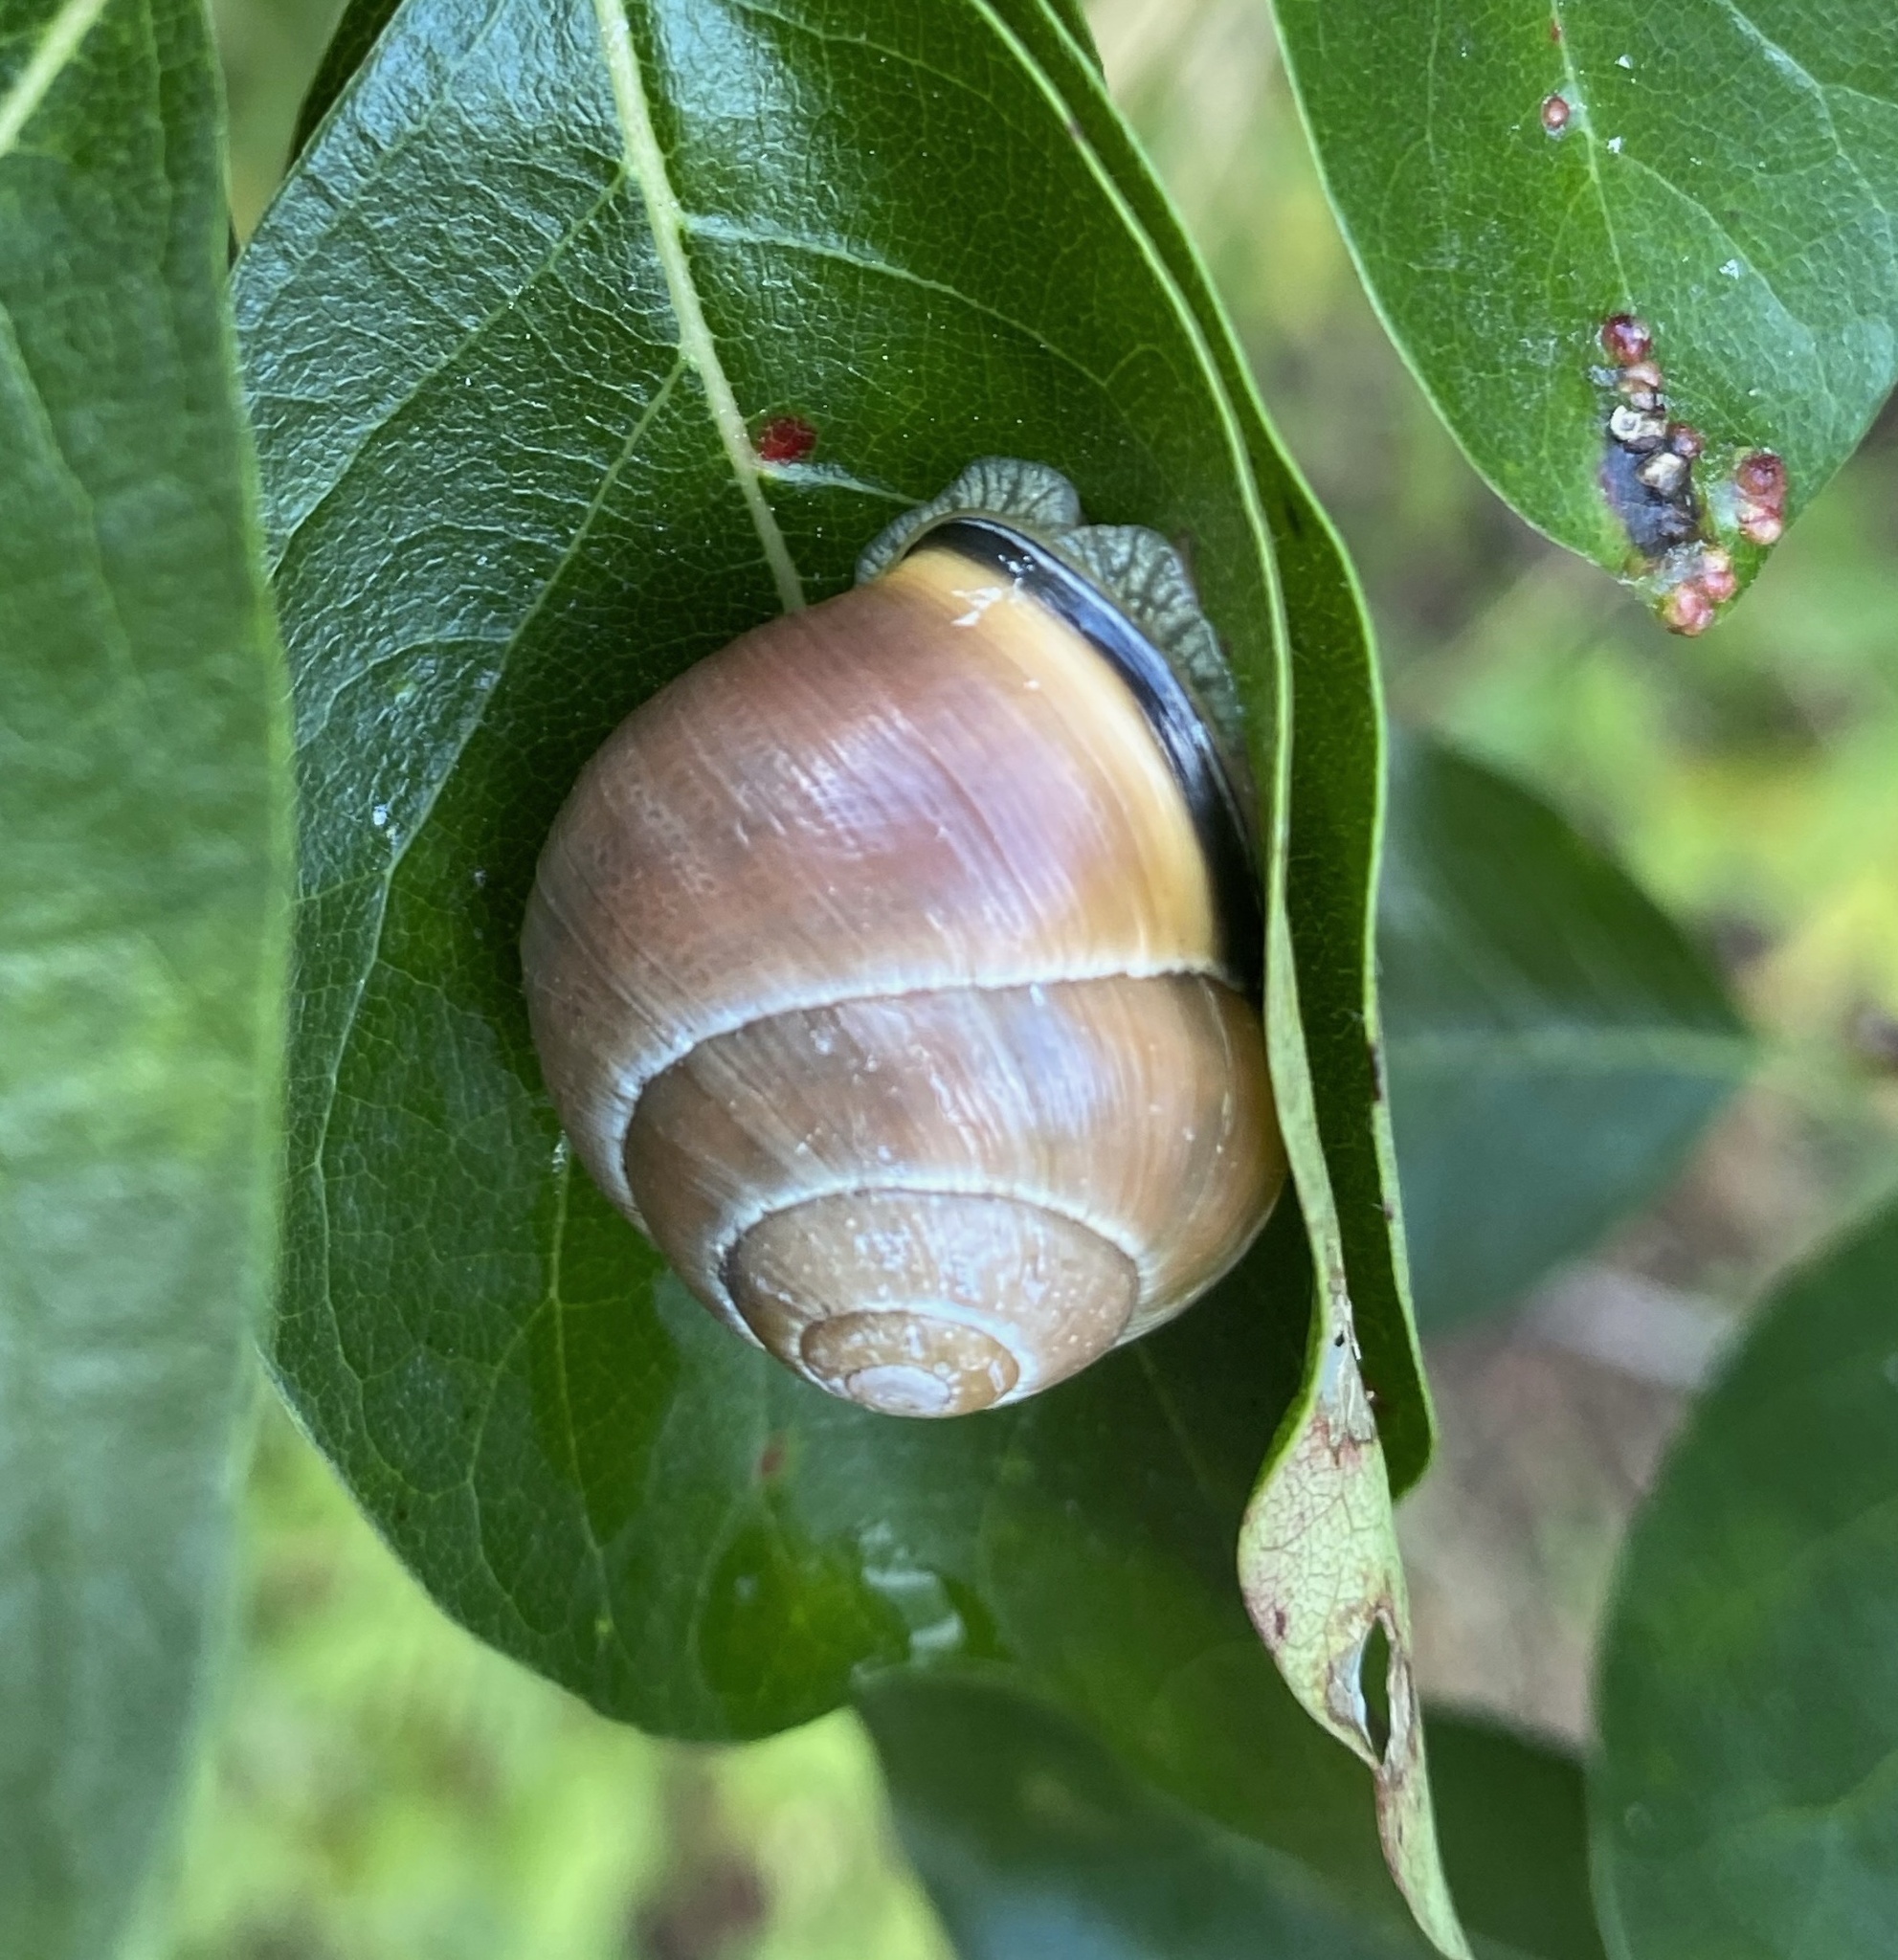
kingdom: Animalia
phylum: Mollusca
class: Gastropoda
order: Stylommatophora
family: Helicidae
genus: Cepaea
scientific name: Cepaea nemoralis
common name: Grovesnail
